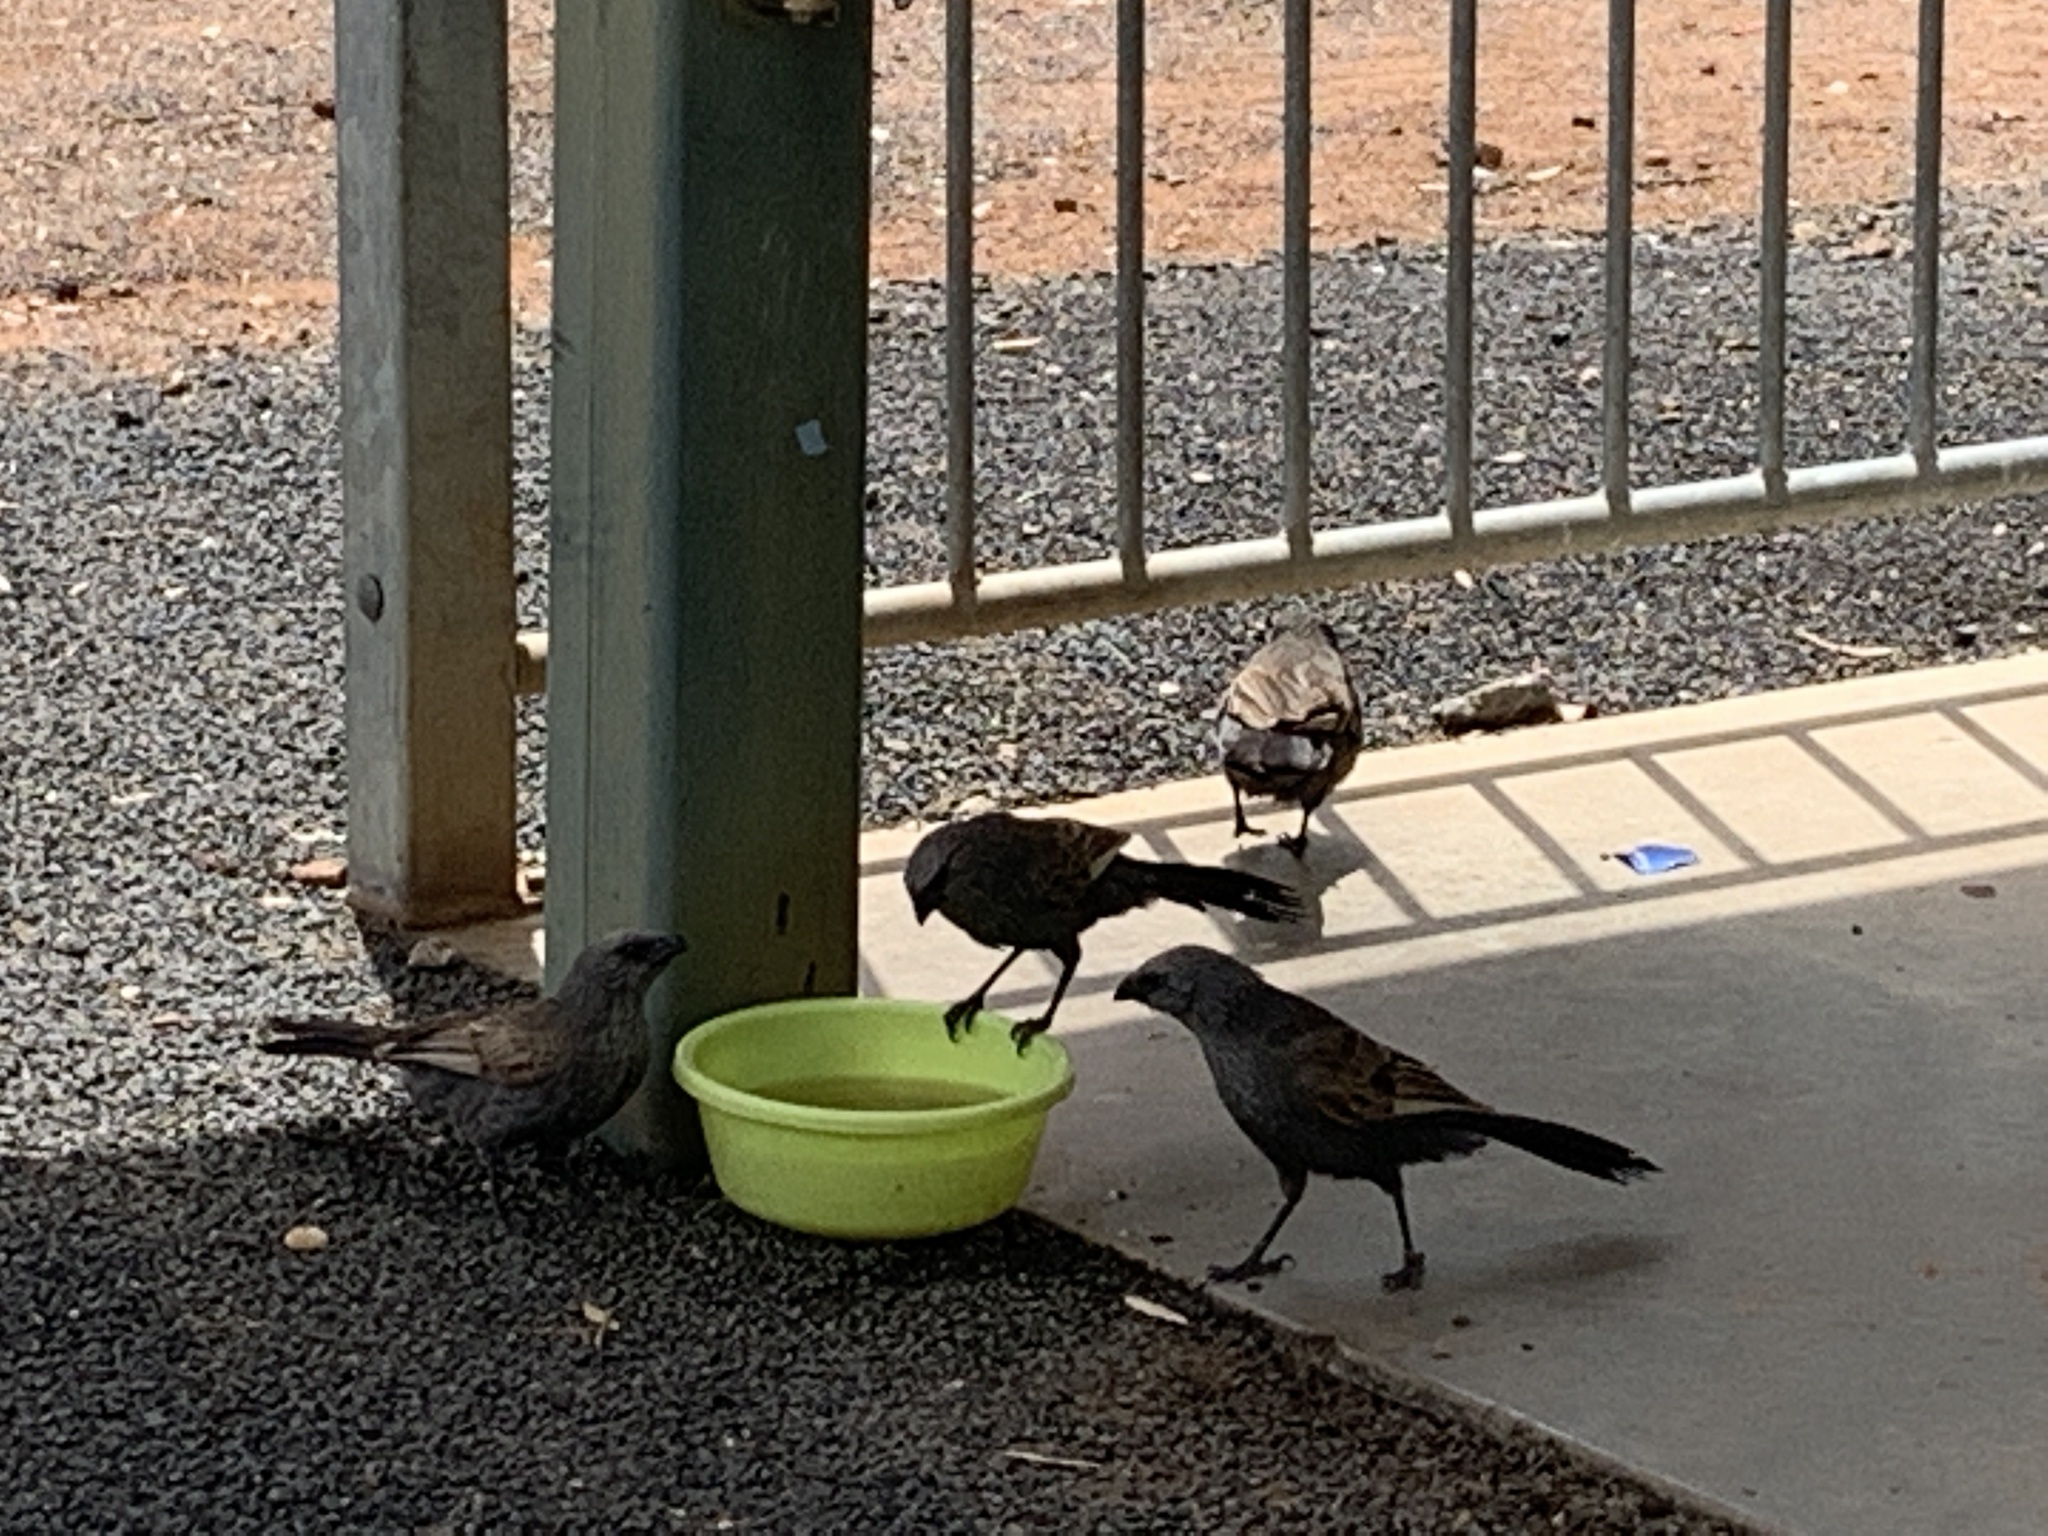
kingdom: Animalia
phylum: Chordata
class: Aves
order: Passeriformes
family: Corcoracidae
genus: Struthidea
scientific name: Struthidea cinerea
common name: Apostlebird
